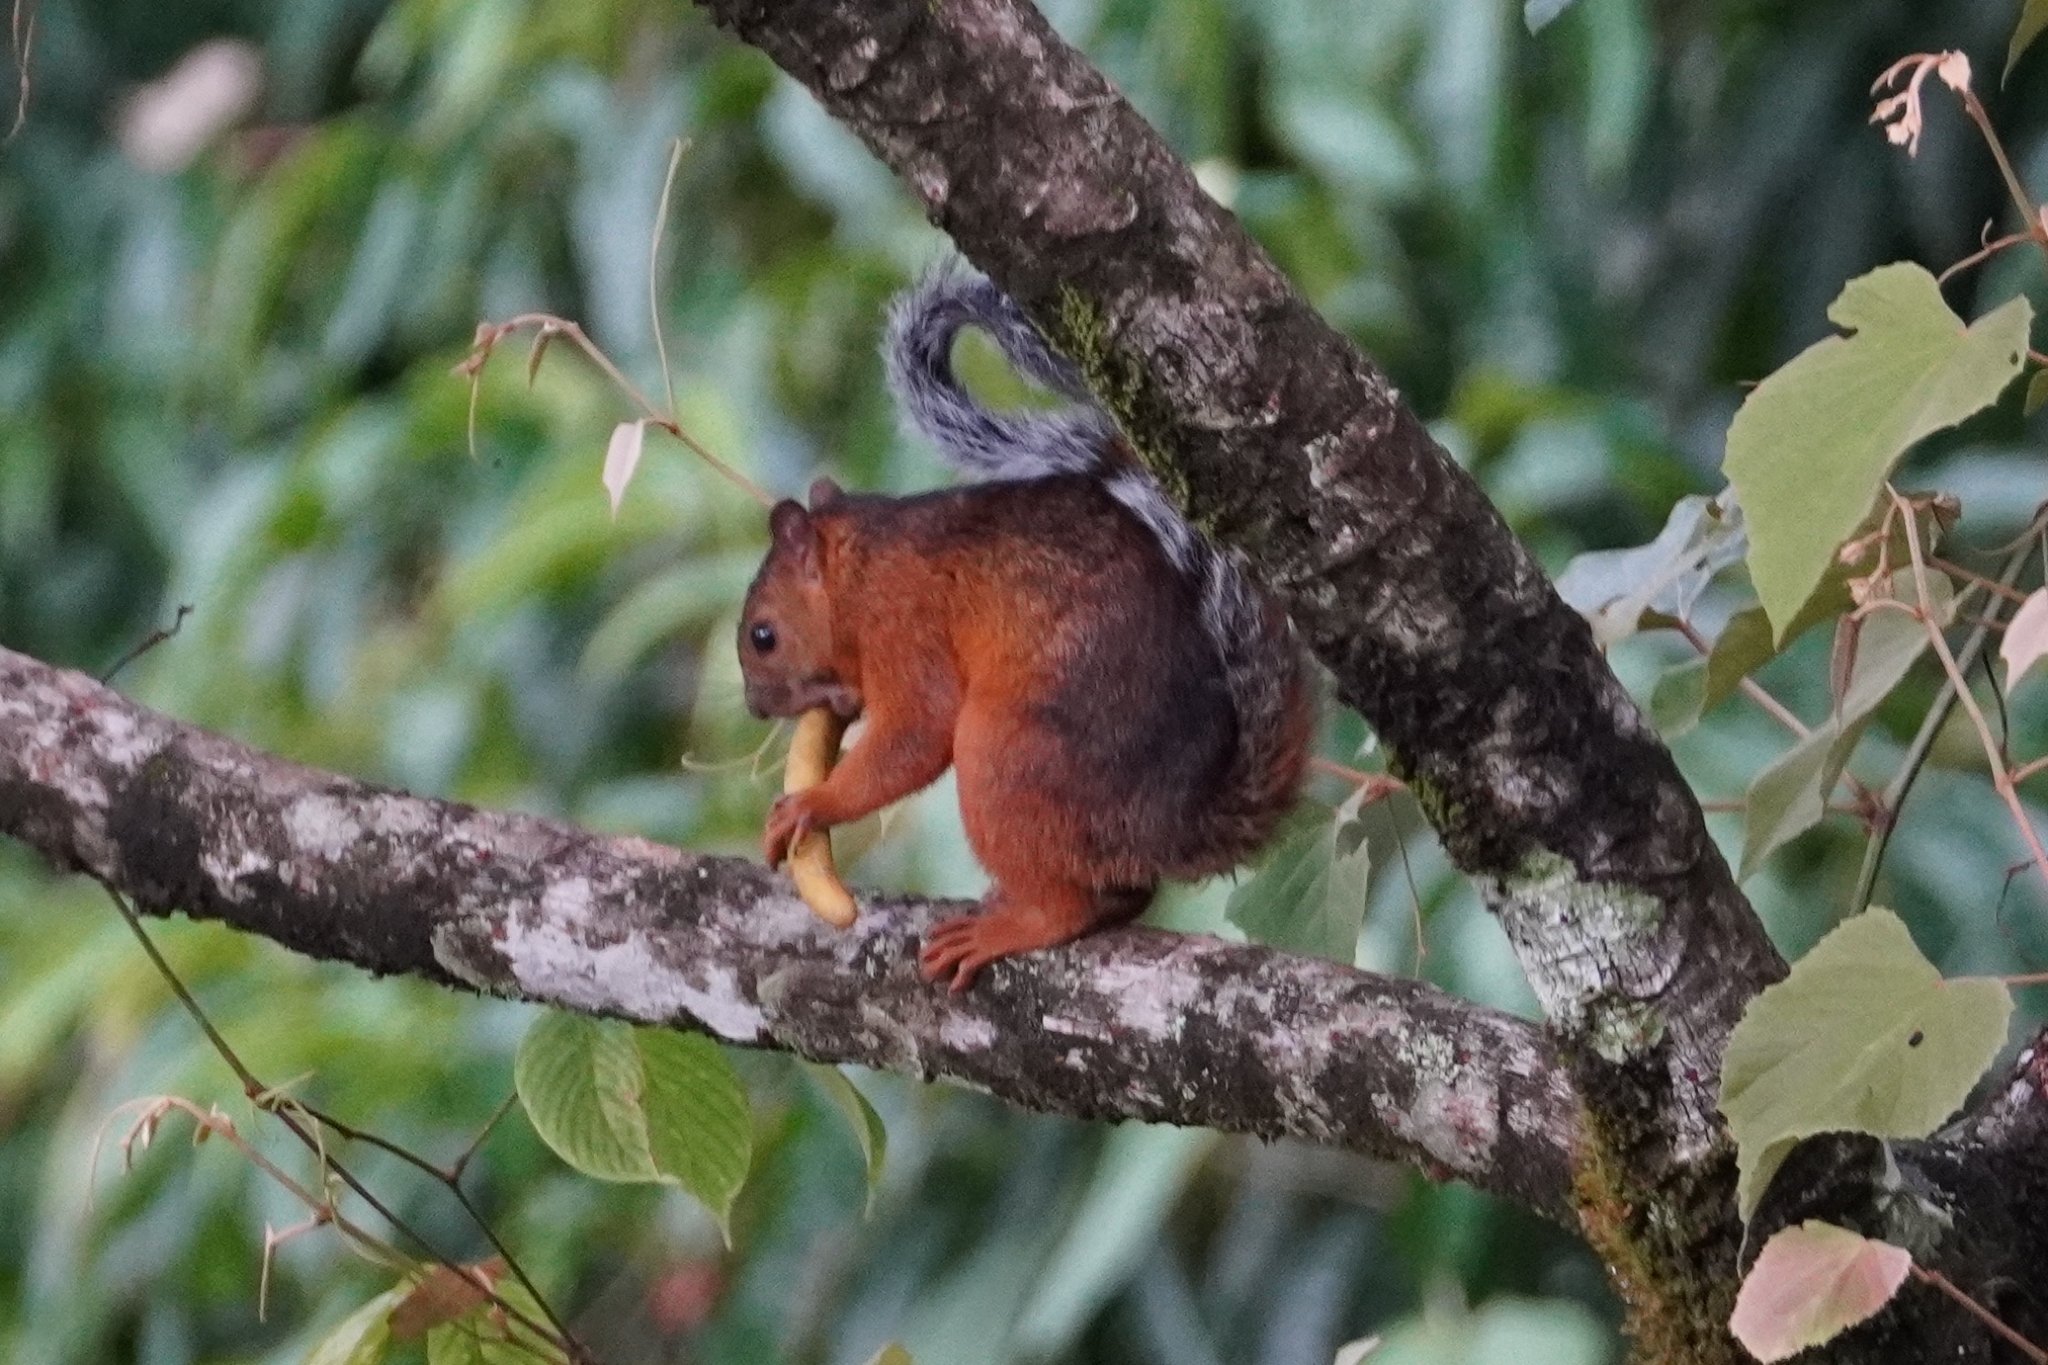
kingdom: Animalia
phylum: Chordata
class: Mammalia
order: Rodentia
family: Sciuridae
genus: Sciurus
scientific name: Sciurus variegatoides
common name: Variegated squirrel
